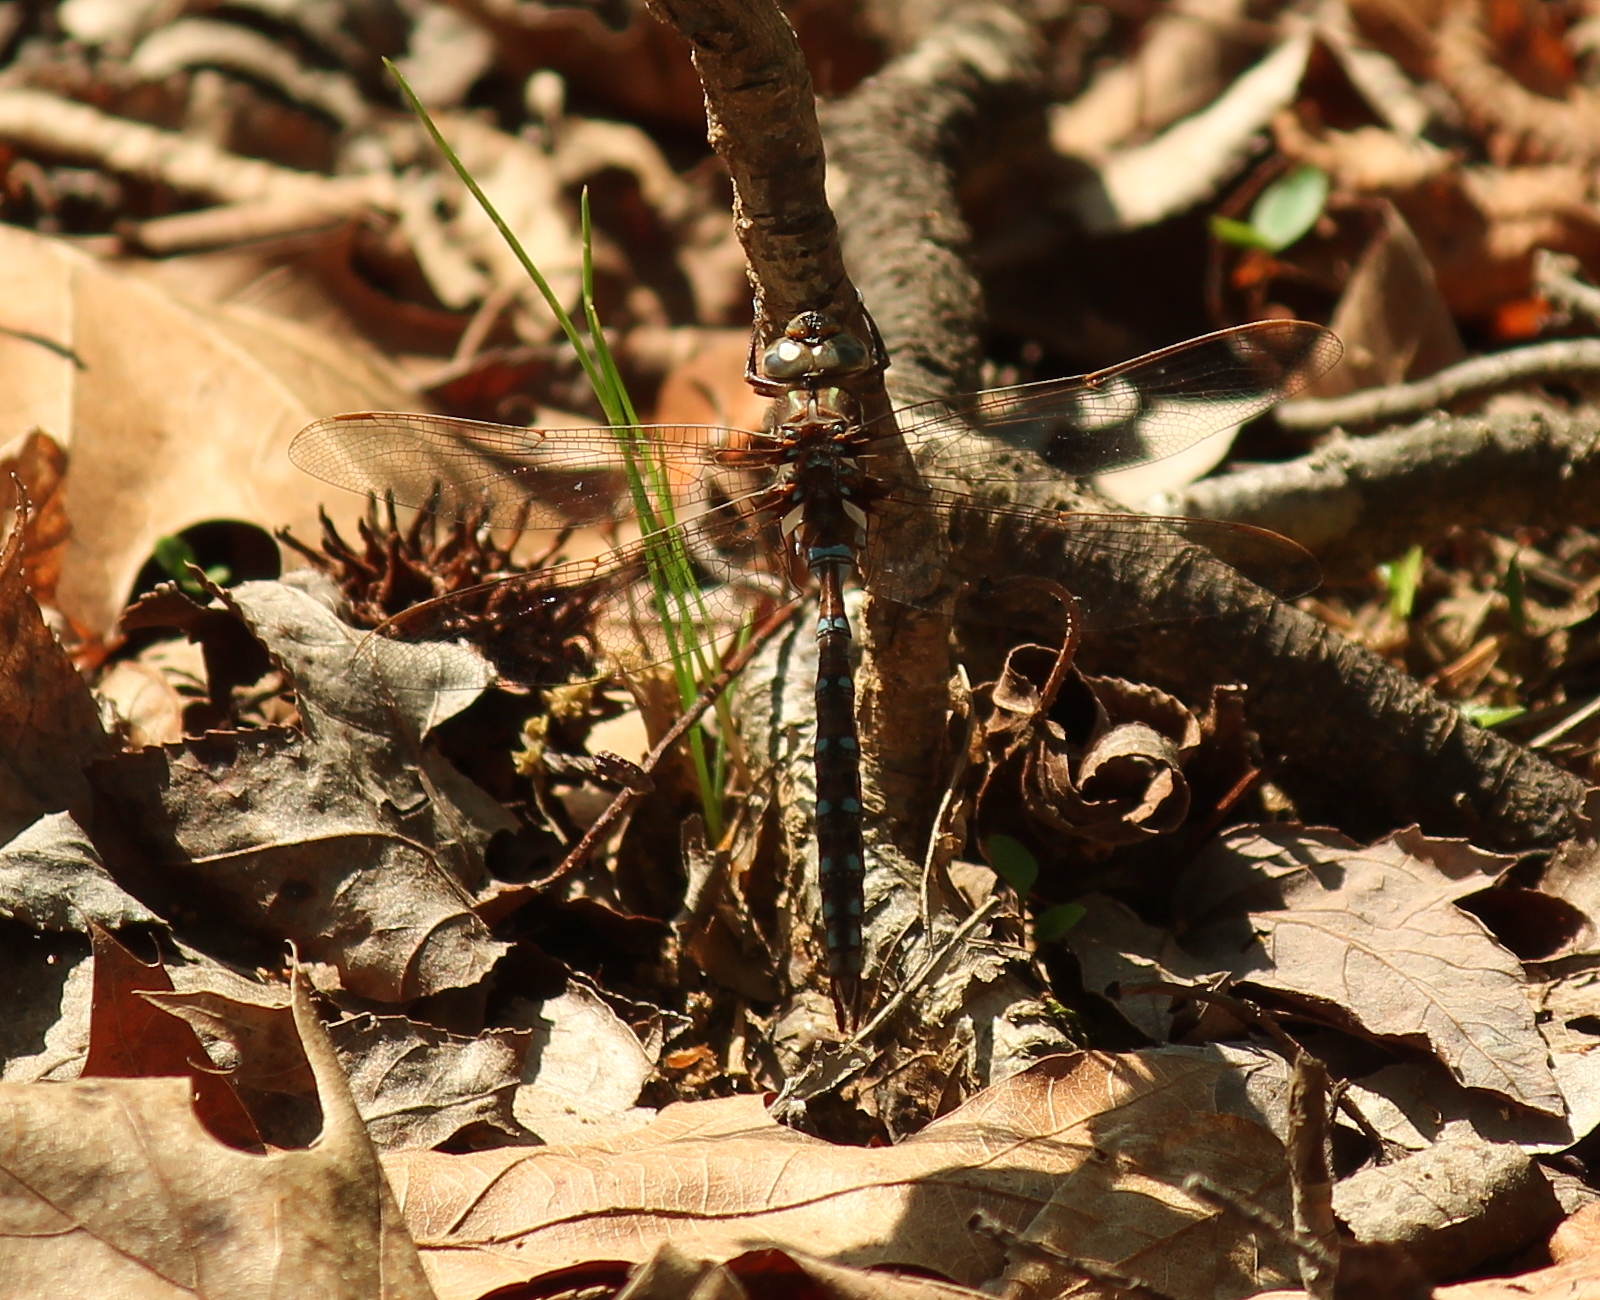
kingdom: Animalia
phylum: Arthropoda
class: Insecta
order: Odonata
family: Aeshnidae
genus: Basiaeschna
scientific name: Basiaeschna janata
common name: Springtime darner
